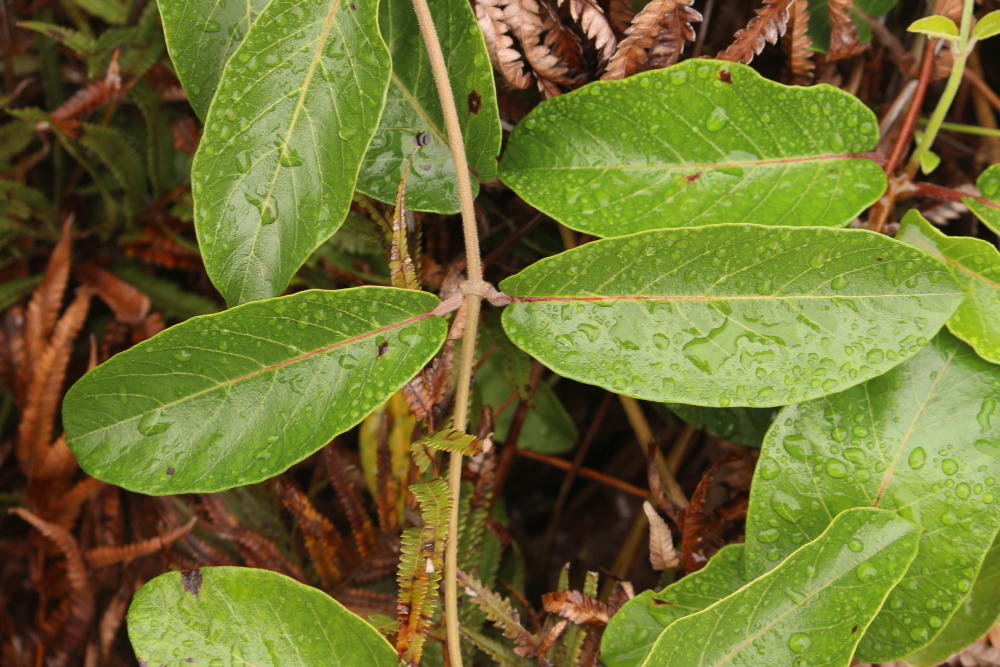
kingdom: Plantae
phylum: Tracheophyta
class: Magnoliopsida
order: Gentianales
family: Apocynaceae
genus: Tacazzea
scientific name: Tacazzea apiculata
